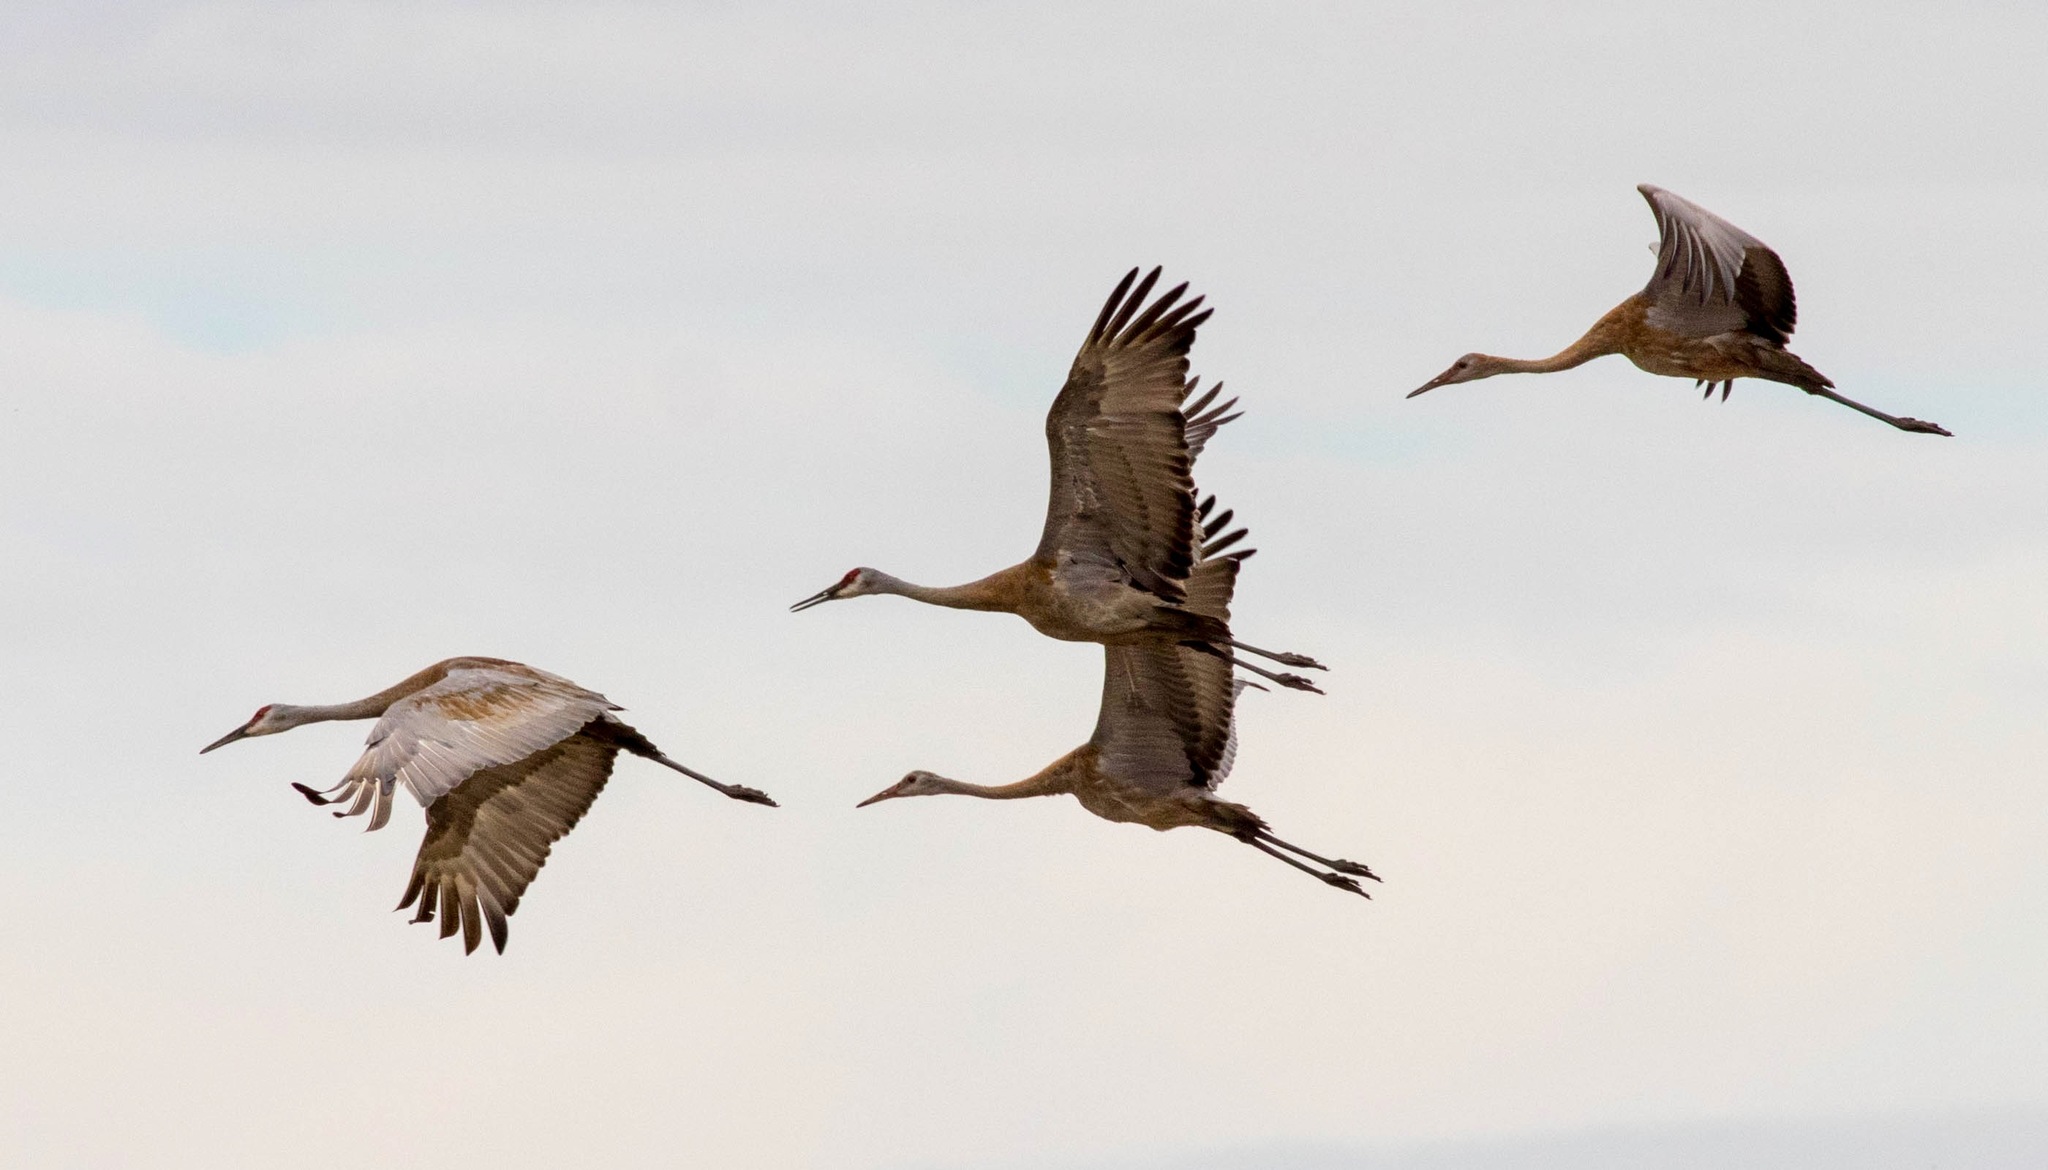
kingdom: Animalia
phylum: Chordata
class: Aves
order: Gruiformes
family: Gruidae
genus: Grus
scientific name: Grus canadensis
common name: Sandhill crane
